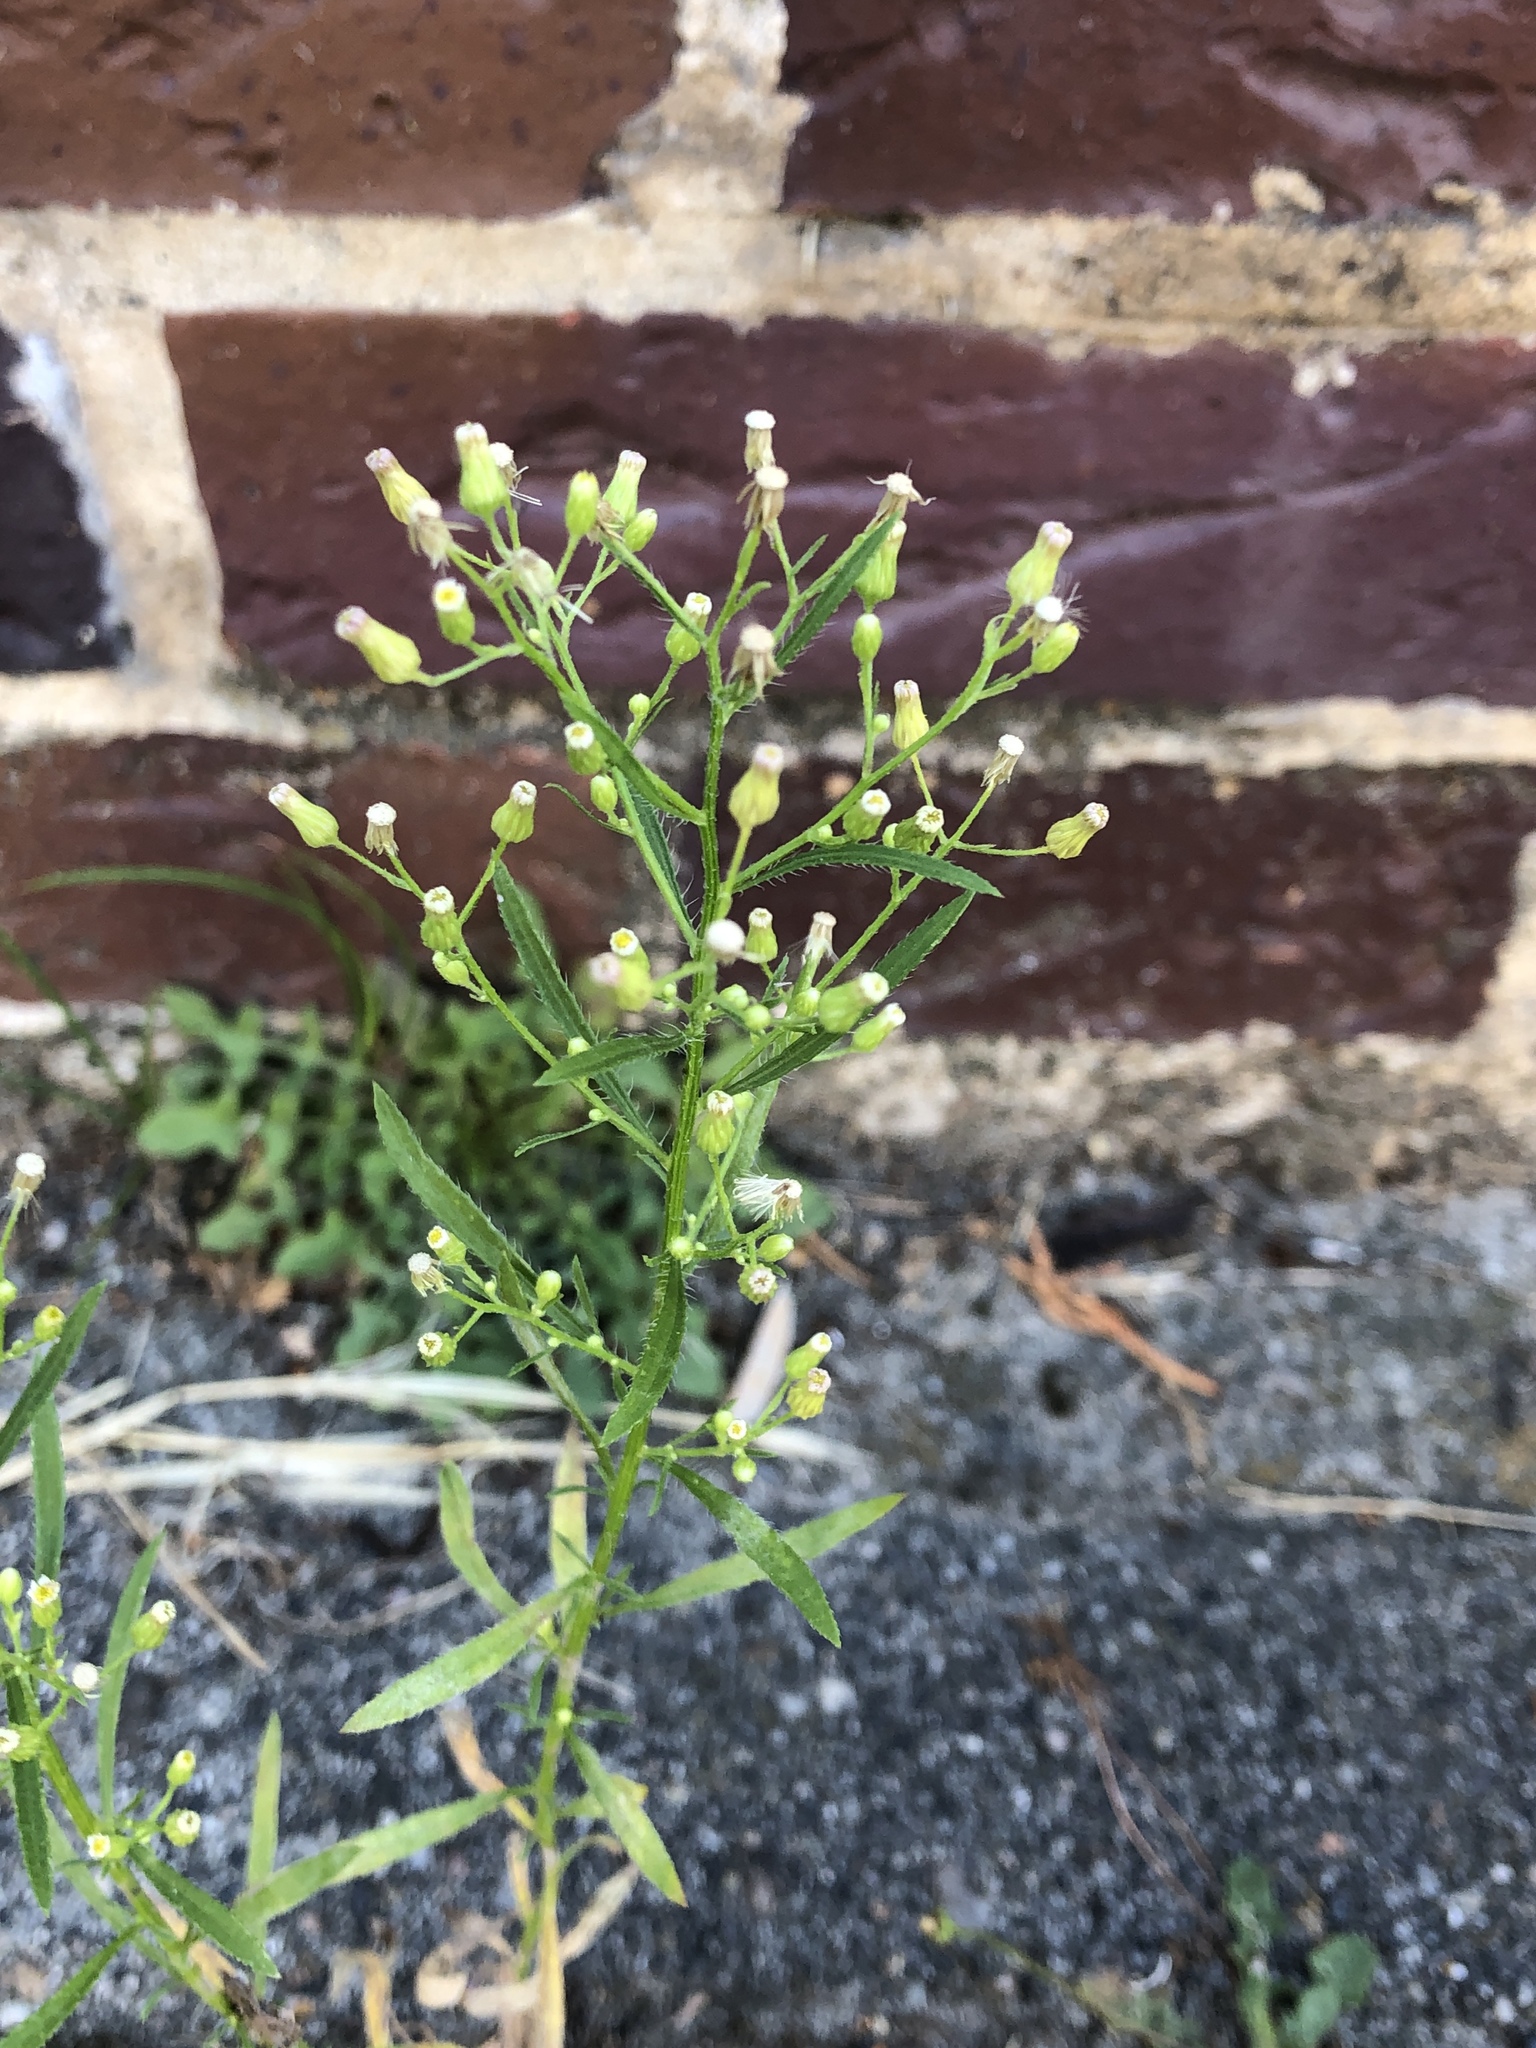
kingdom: Plantae
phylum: Tracheophyta
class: Magnoliopsida
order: Asterales
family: Asteraceae
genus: Erigeron
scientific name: Erigeron canadensis
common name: Canadian fleabane
